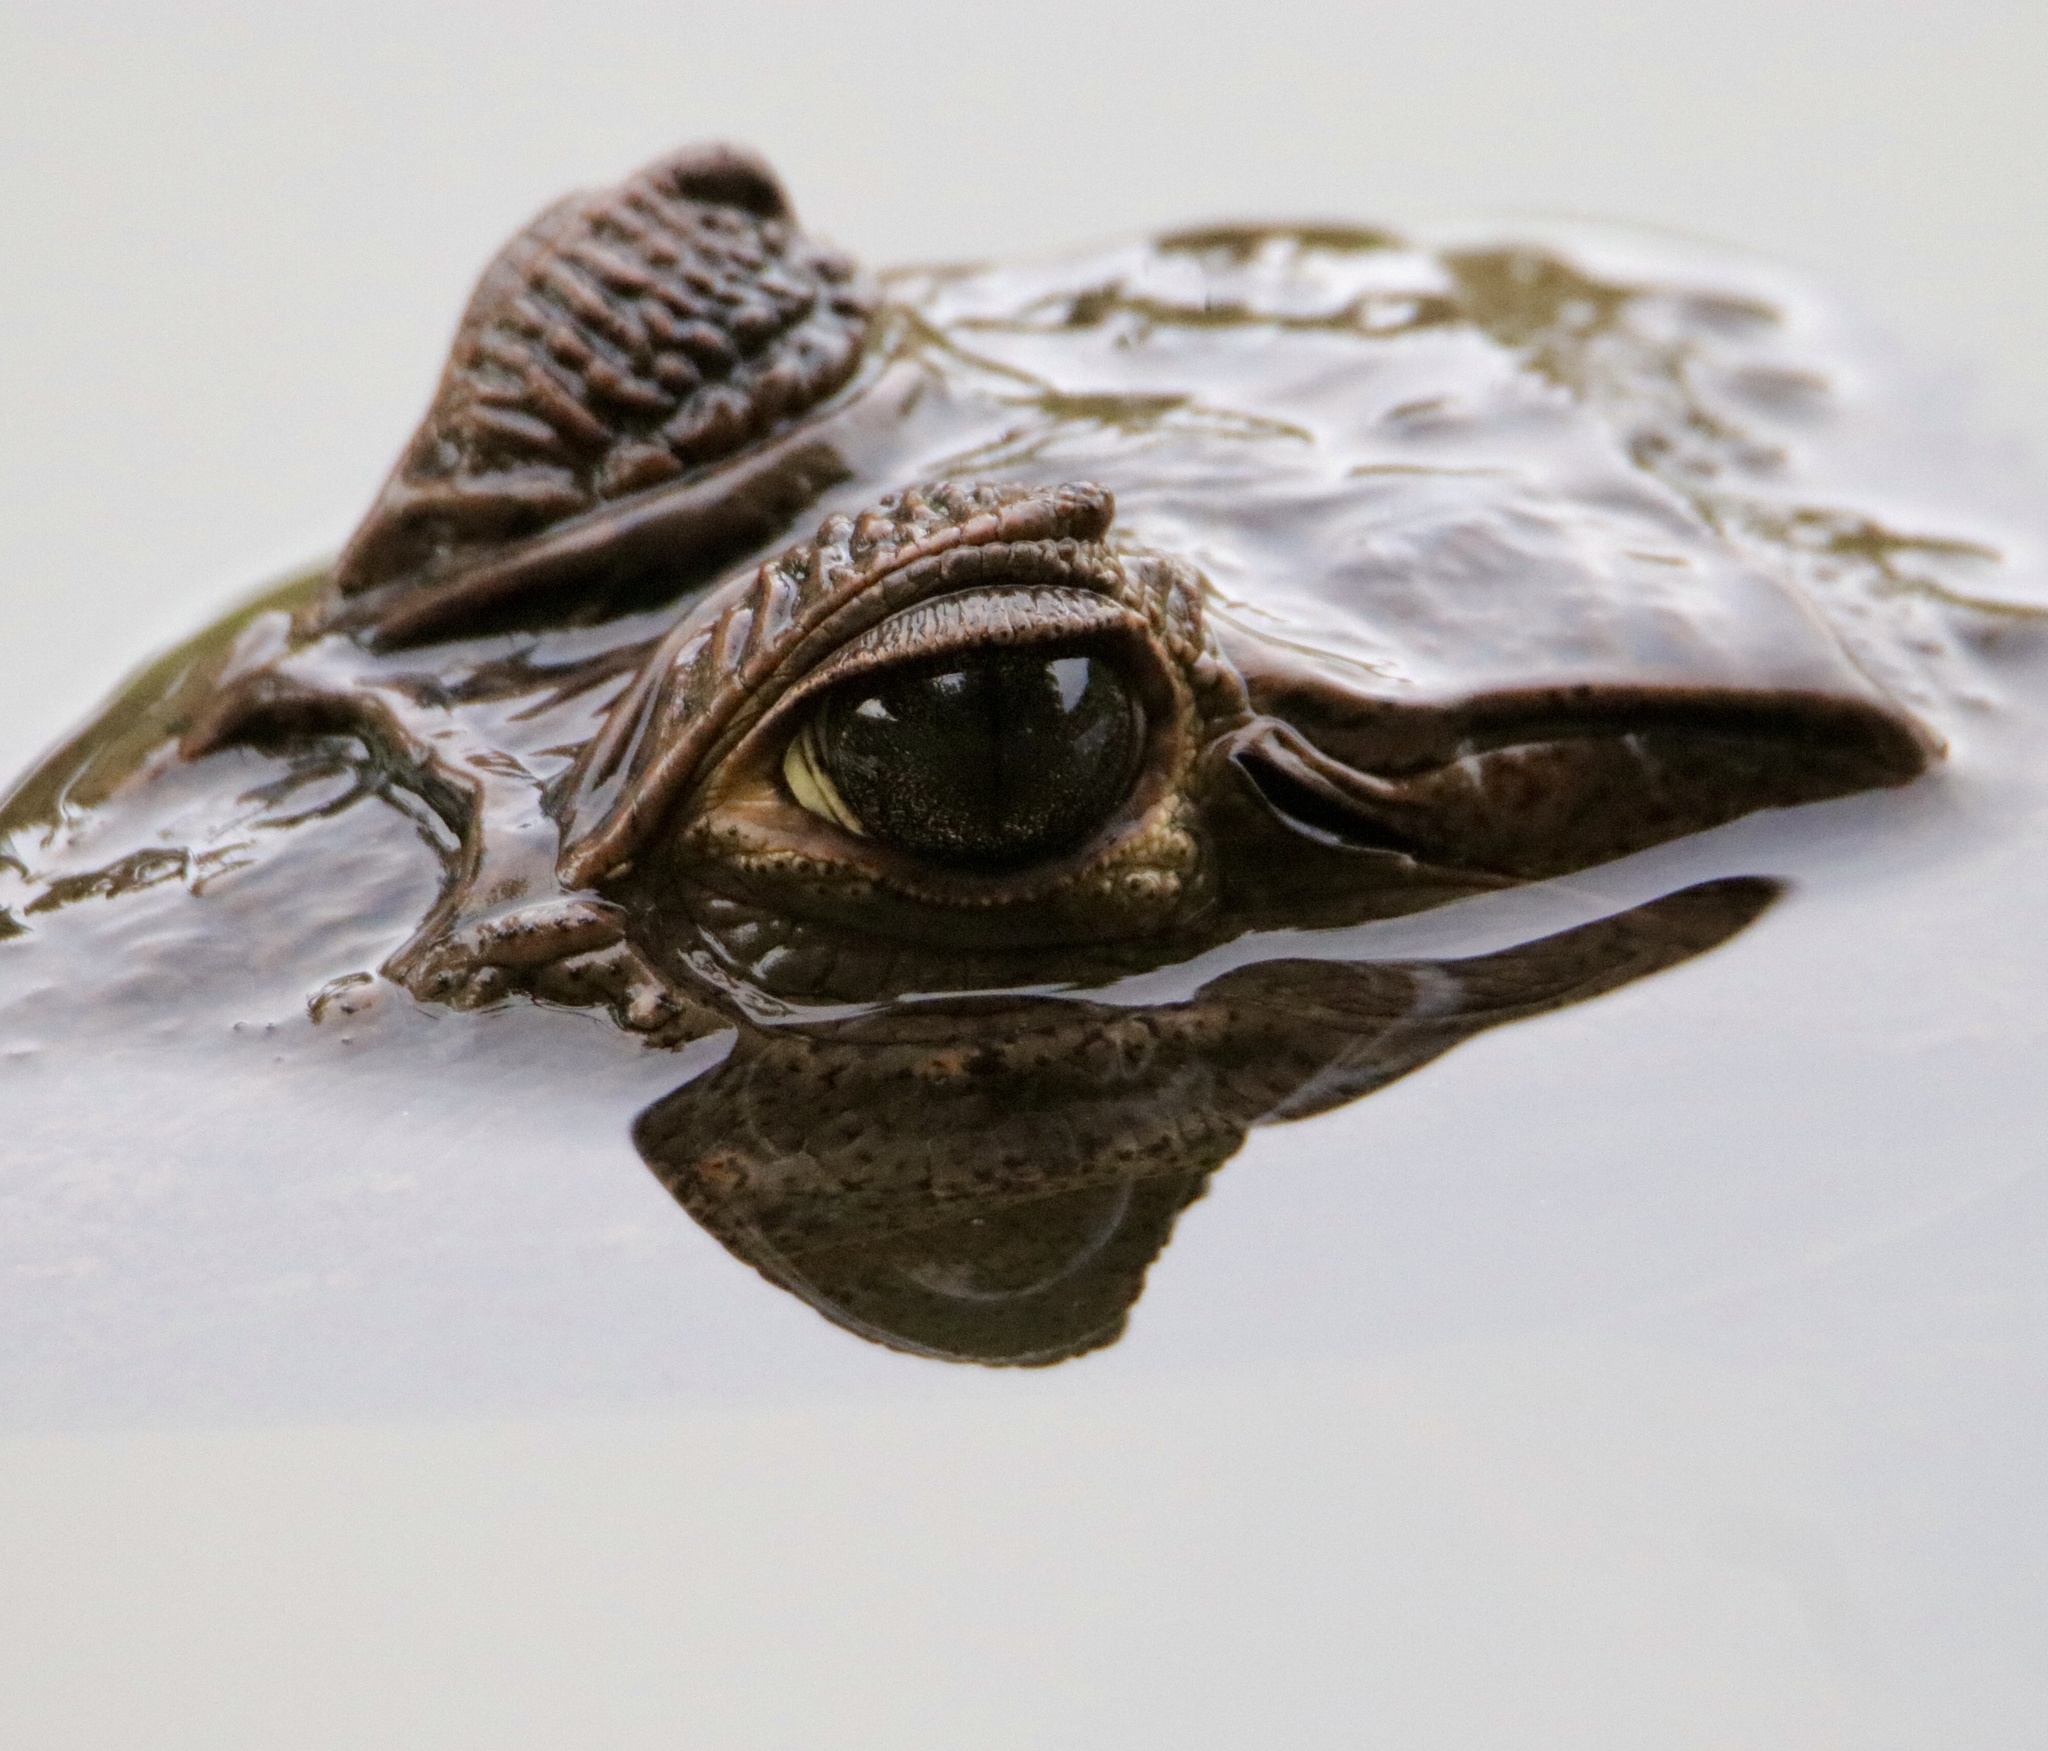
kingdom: Animalia
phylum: Chordata
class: Crocodylia
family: Alligatoridae
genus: Caiman
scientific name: Caiman crocodilus
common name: Common caiman
